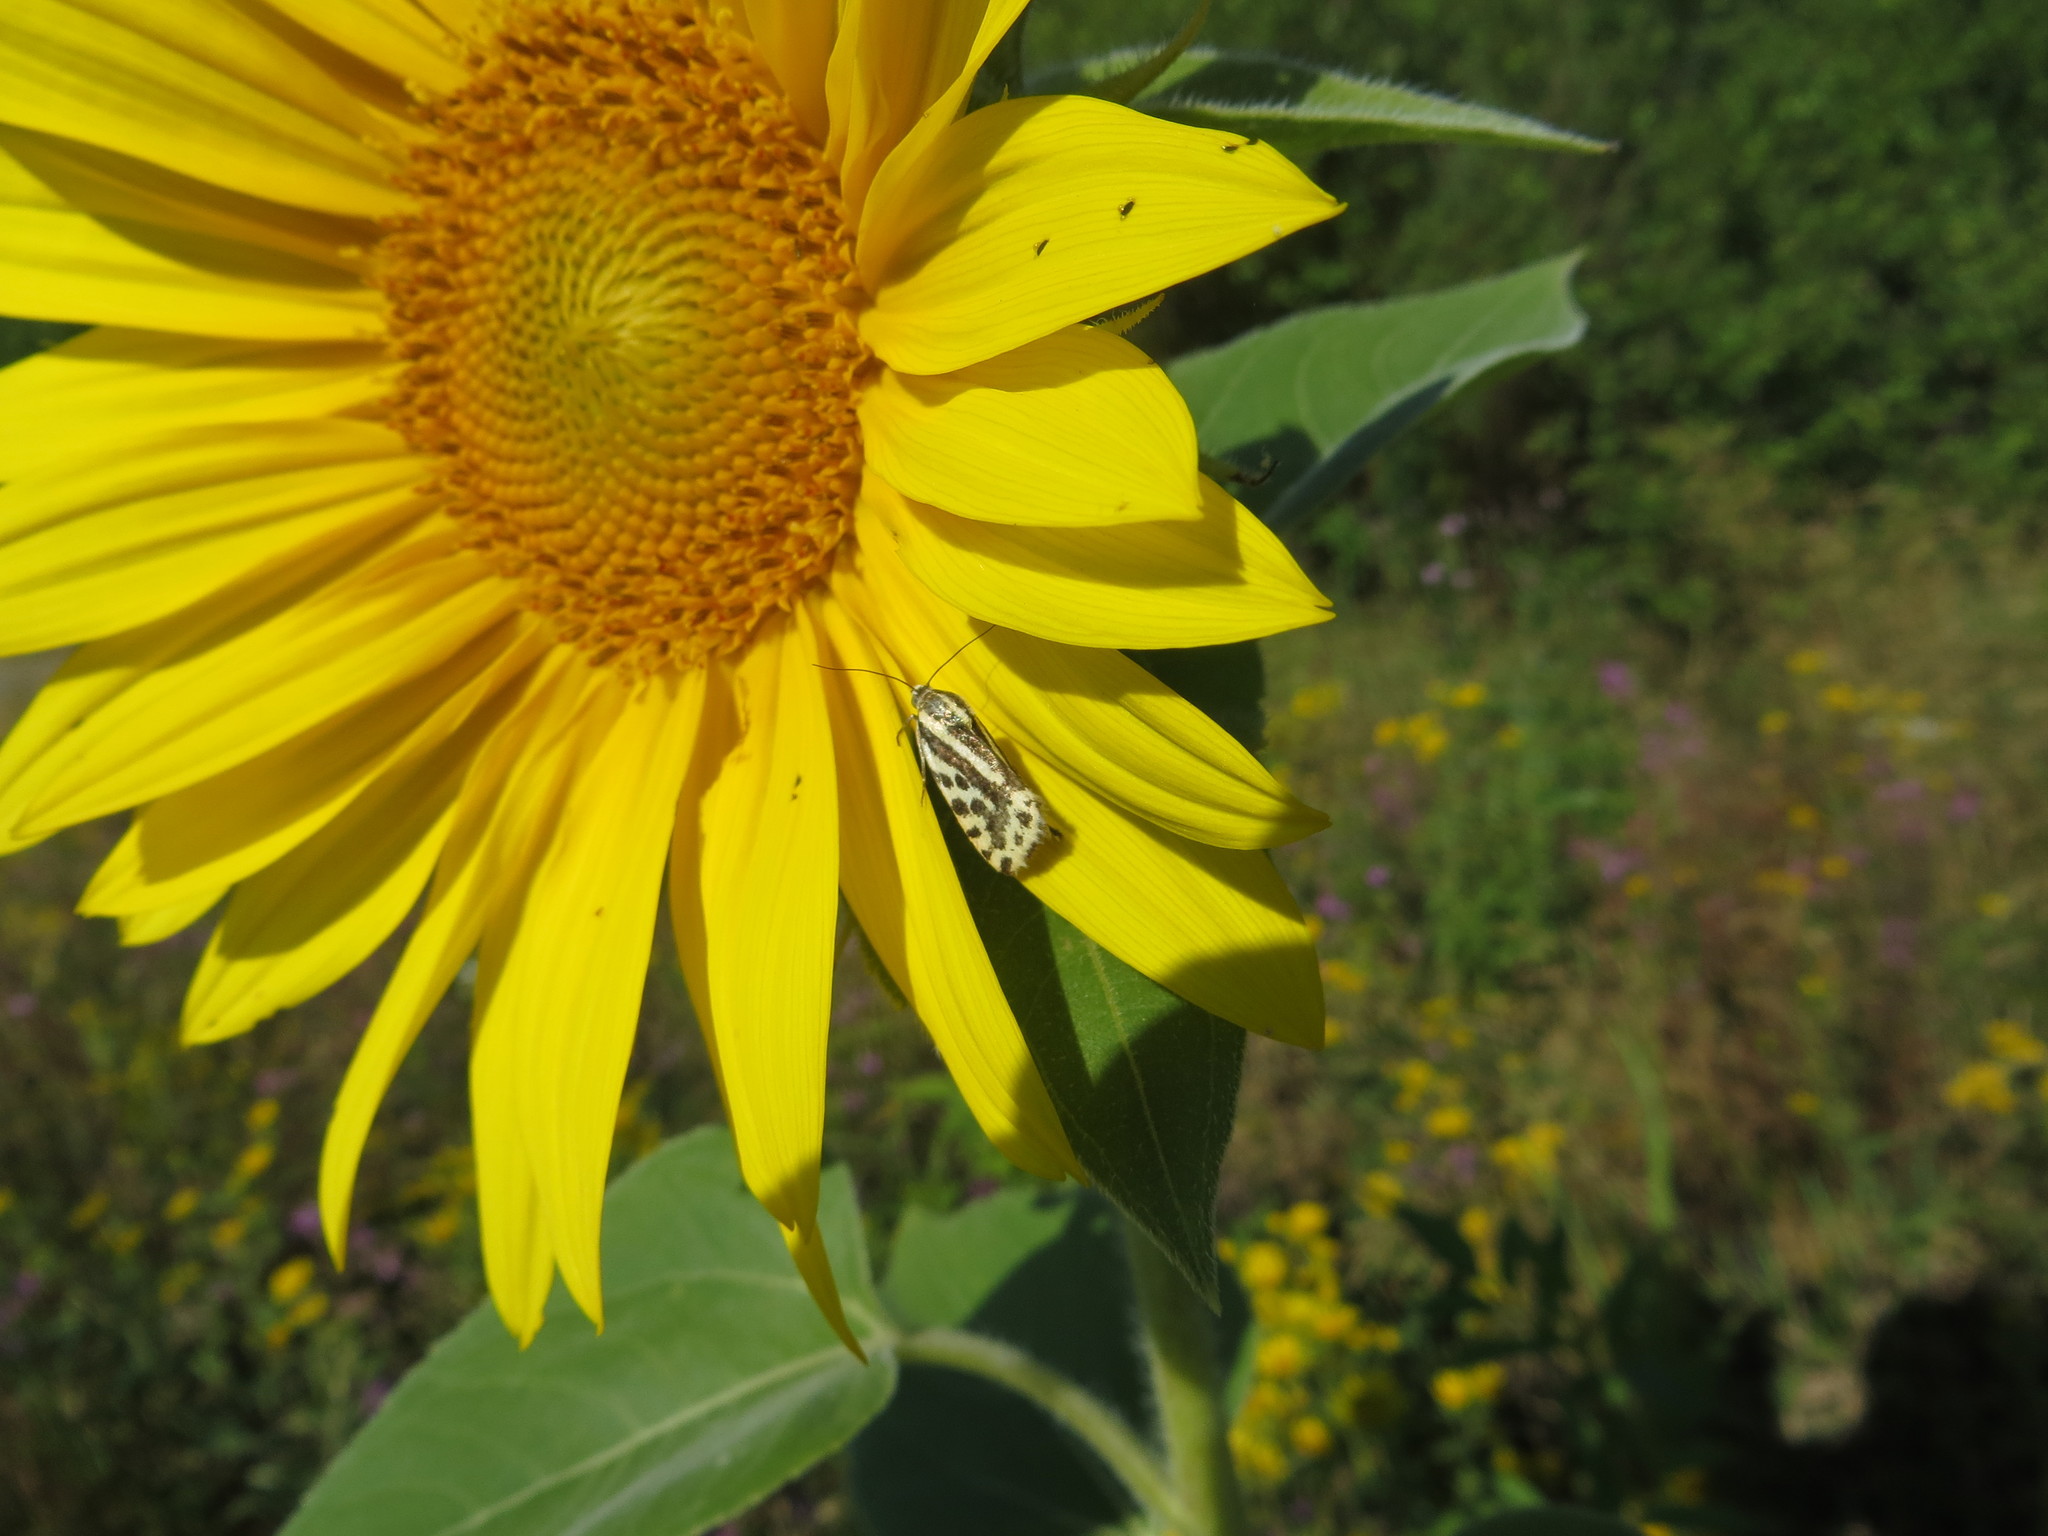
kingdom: Animalia
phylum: Arthropoda
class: Insecta
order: Lepidoptera
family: Noctuidae
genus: Acontia
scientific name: Acontia trabealis
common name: Spotted sulphur
